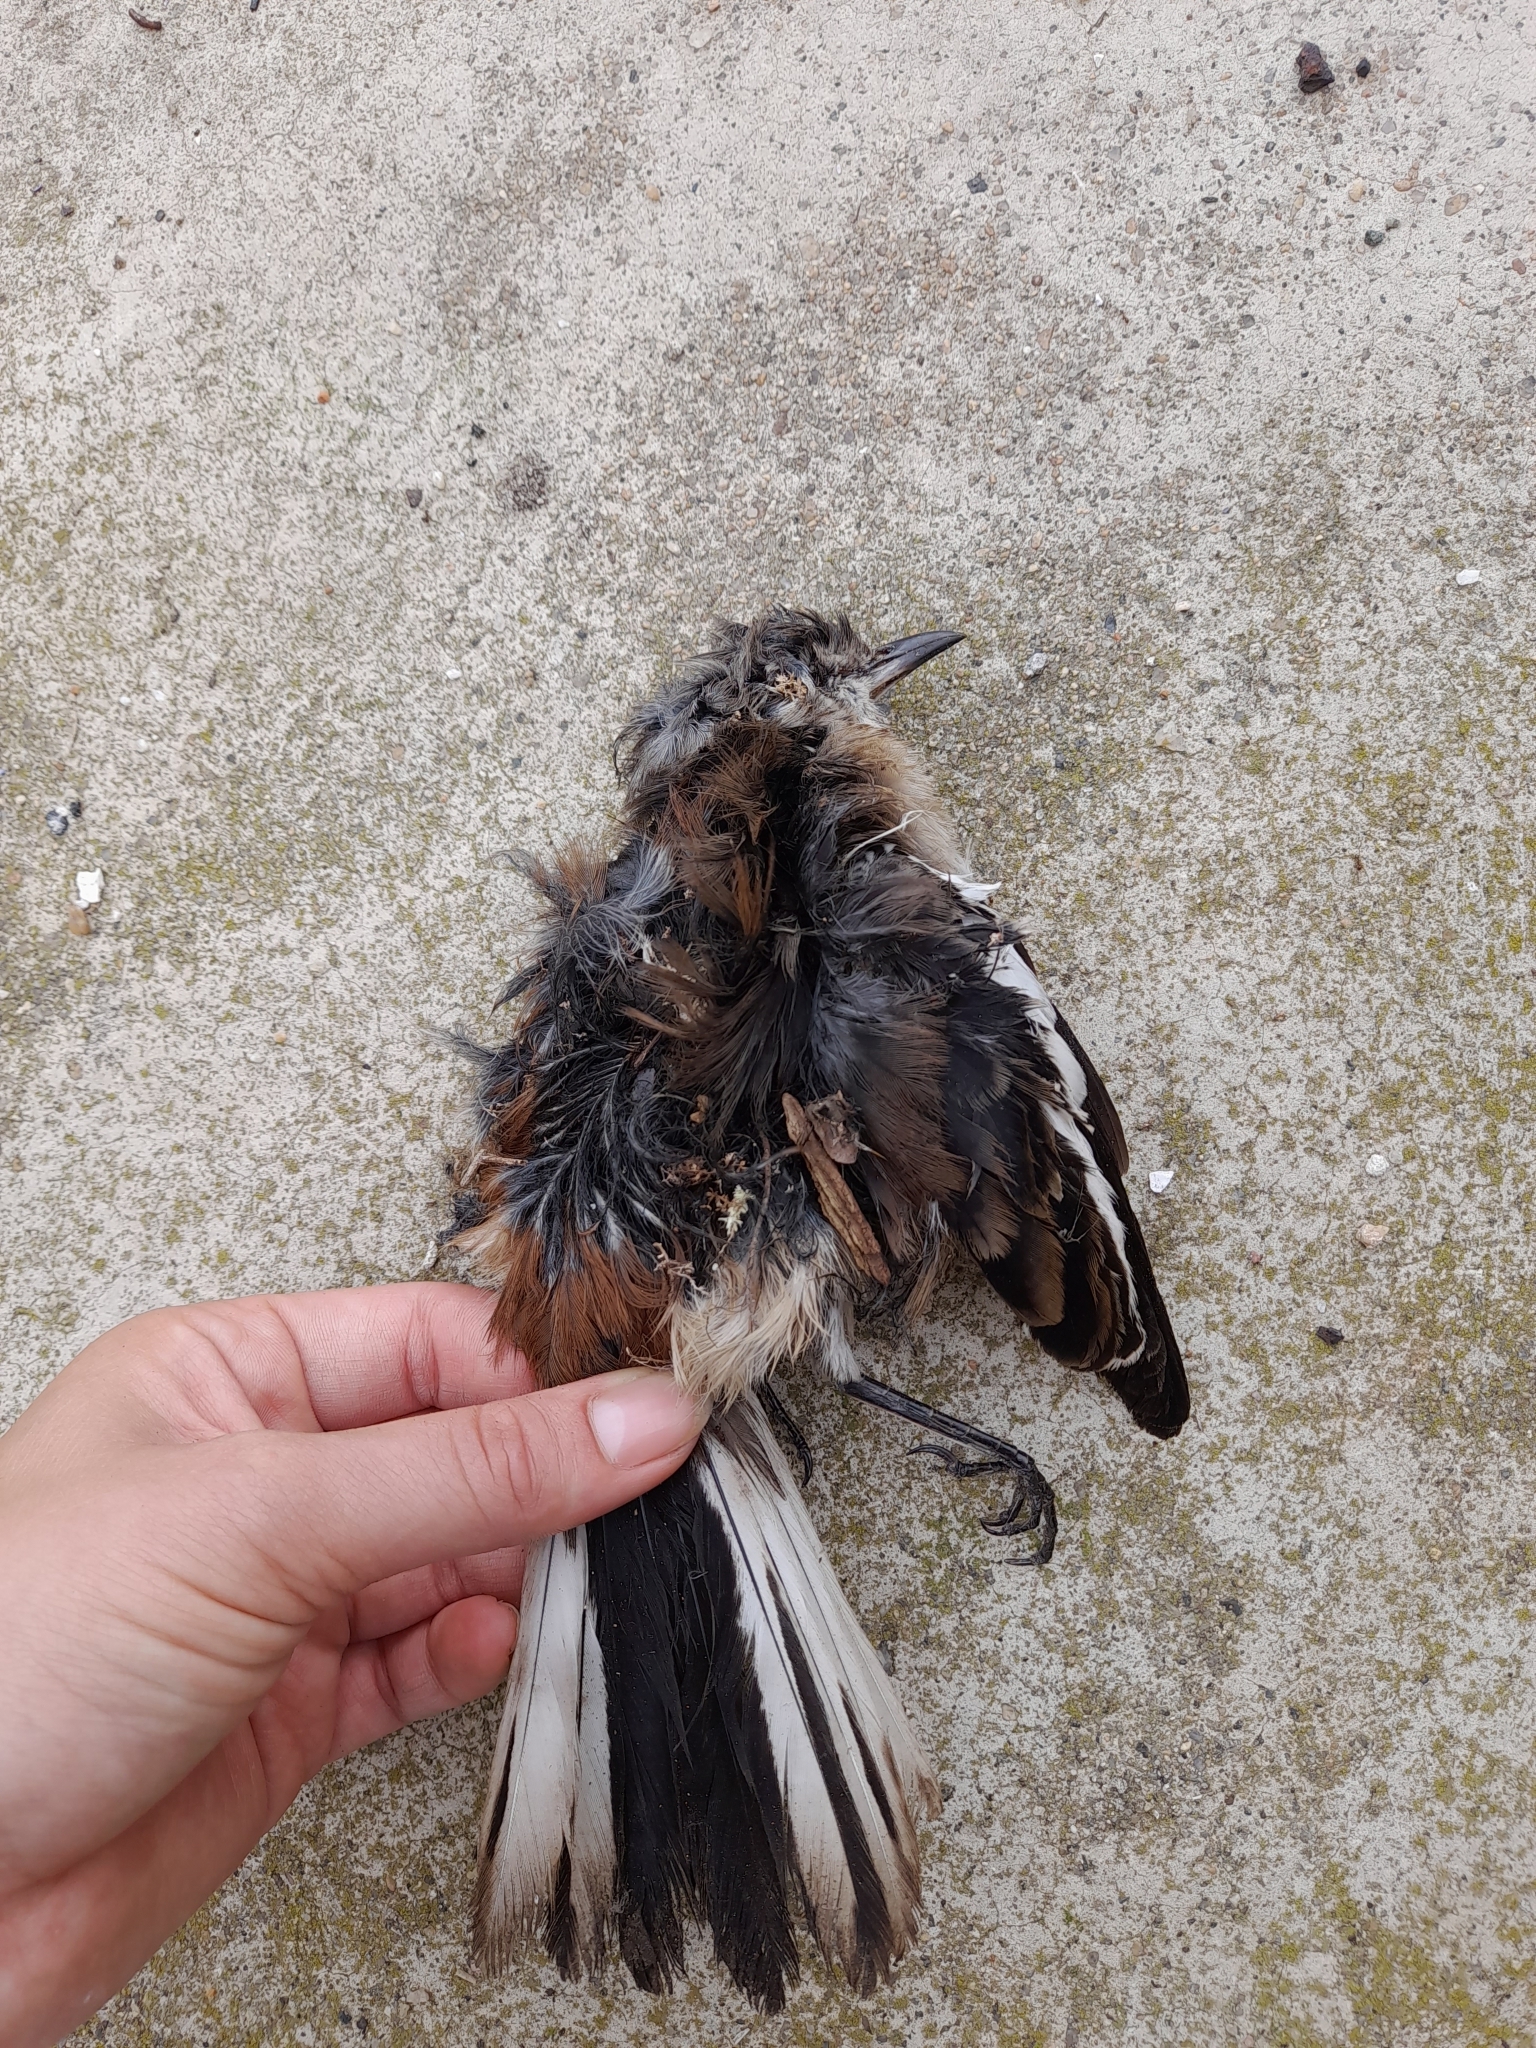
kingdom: Animalia
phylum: Chordata
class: Aves
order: Passeriformes
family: Mimidae
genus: Mimus
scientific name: Mimus triurus
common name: White-banded mockingbird
